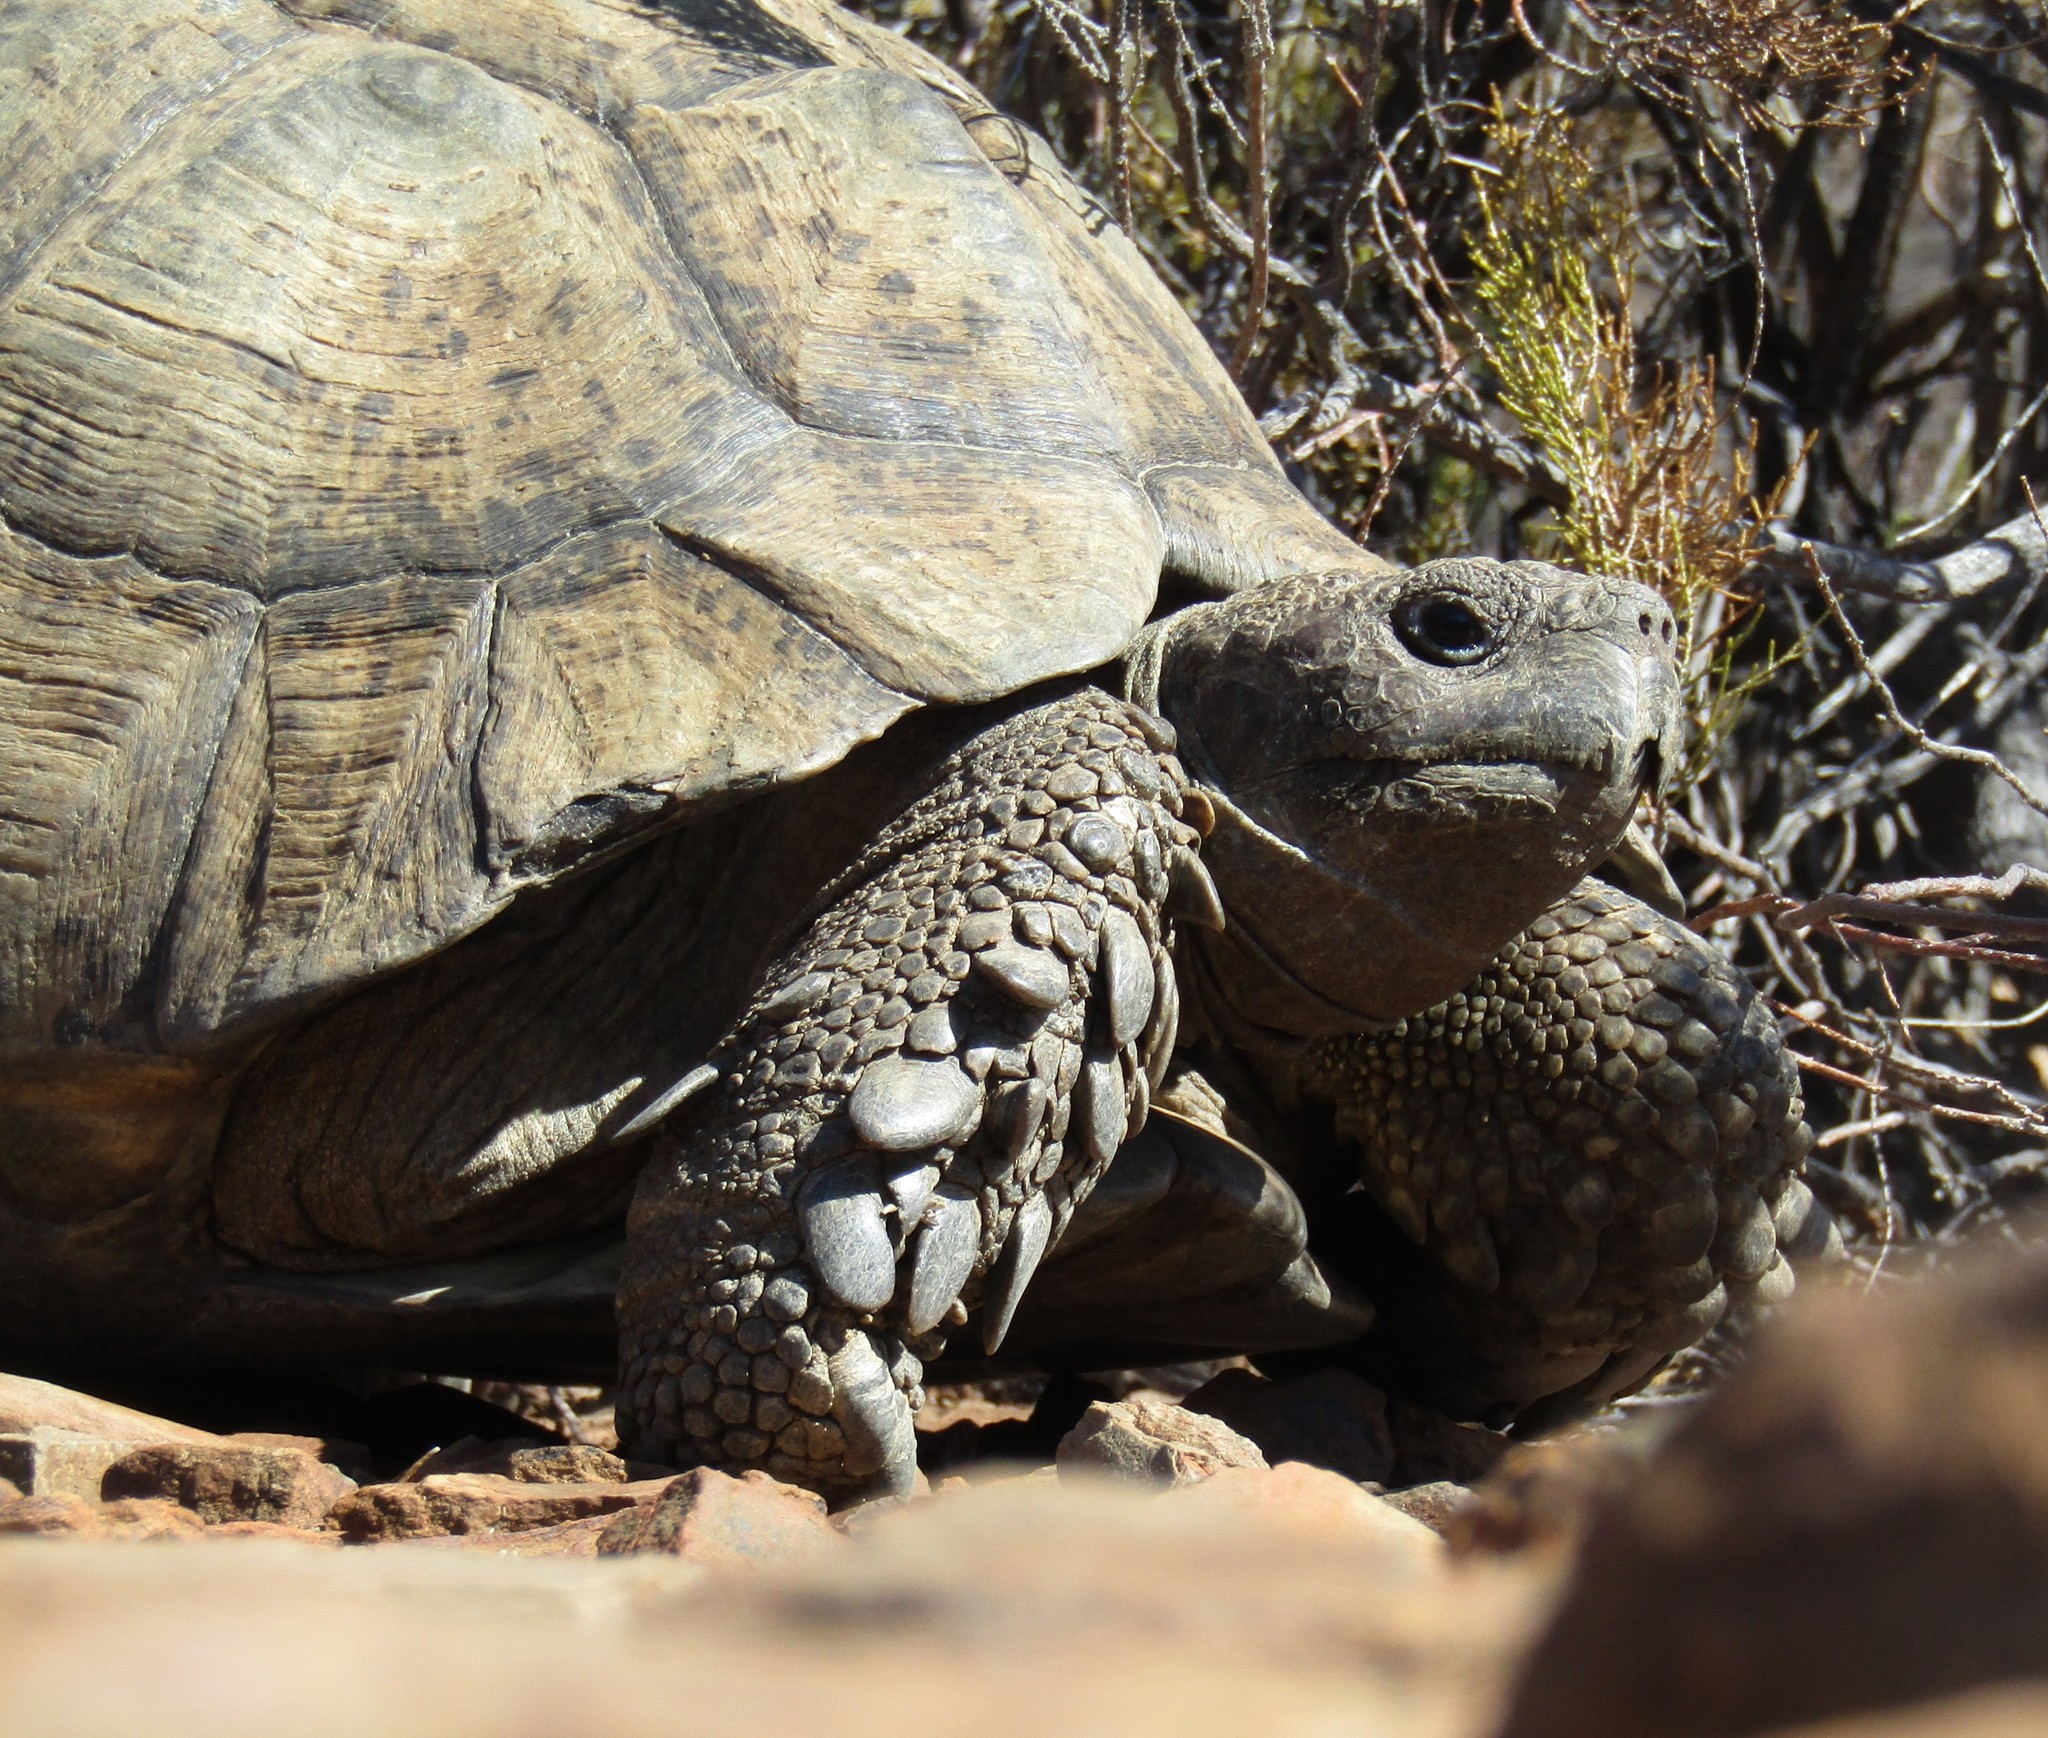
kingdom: Animalia
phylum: Chordata
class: Testudines
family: Testudinidae
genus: Stigmochelys
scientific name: Stigmochelys pardalis
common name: Leopard tortoise
